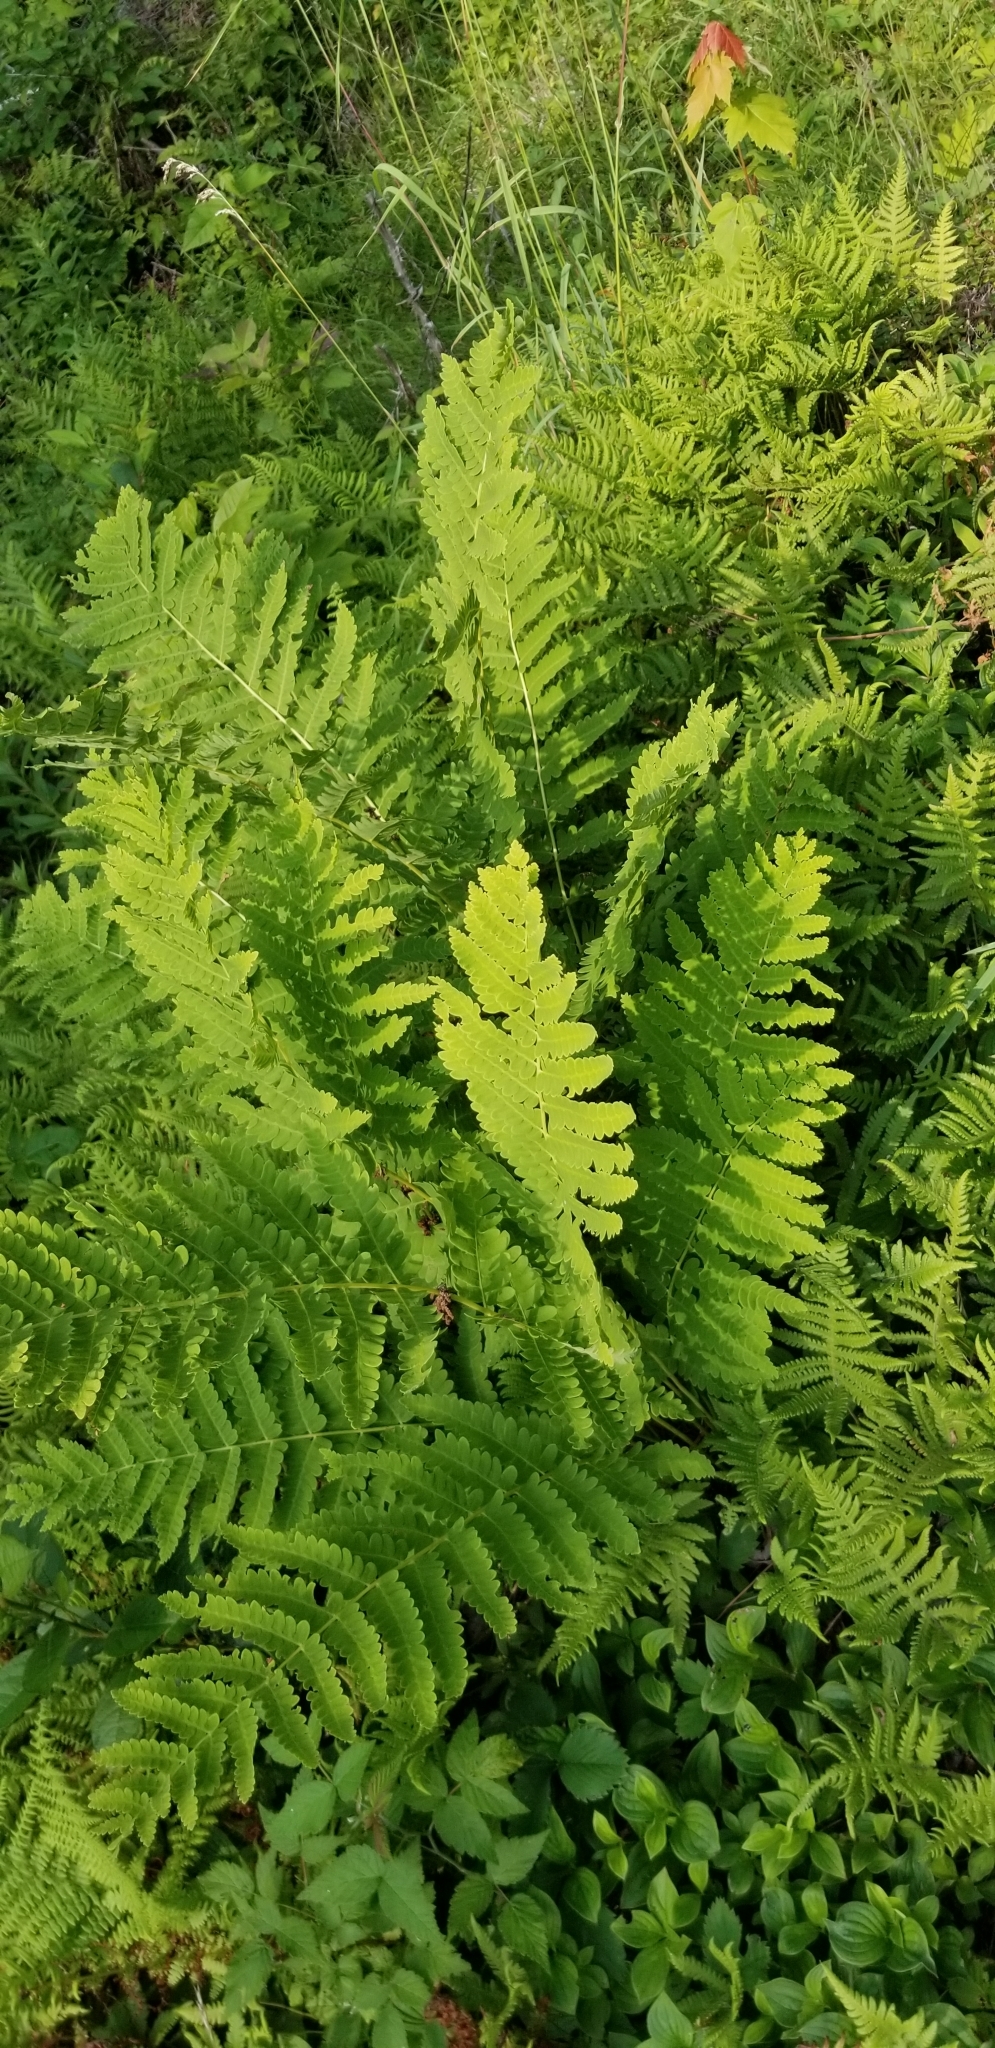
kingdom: Plantae
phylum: Tracheophyta
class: Polypodiopsida
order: Osmundales
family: Osmundaceae
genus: Claytosmunda
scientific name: Claytosmunda claytoniana
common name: Clayton's fern
